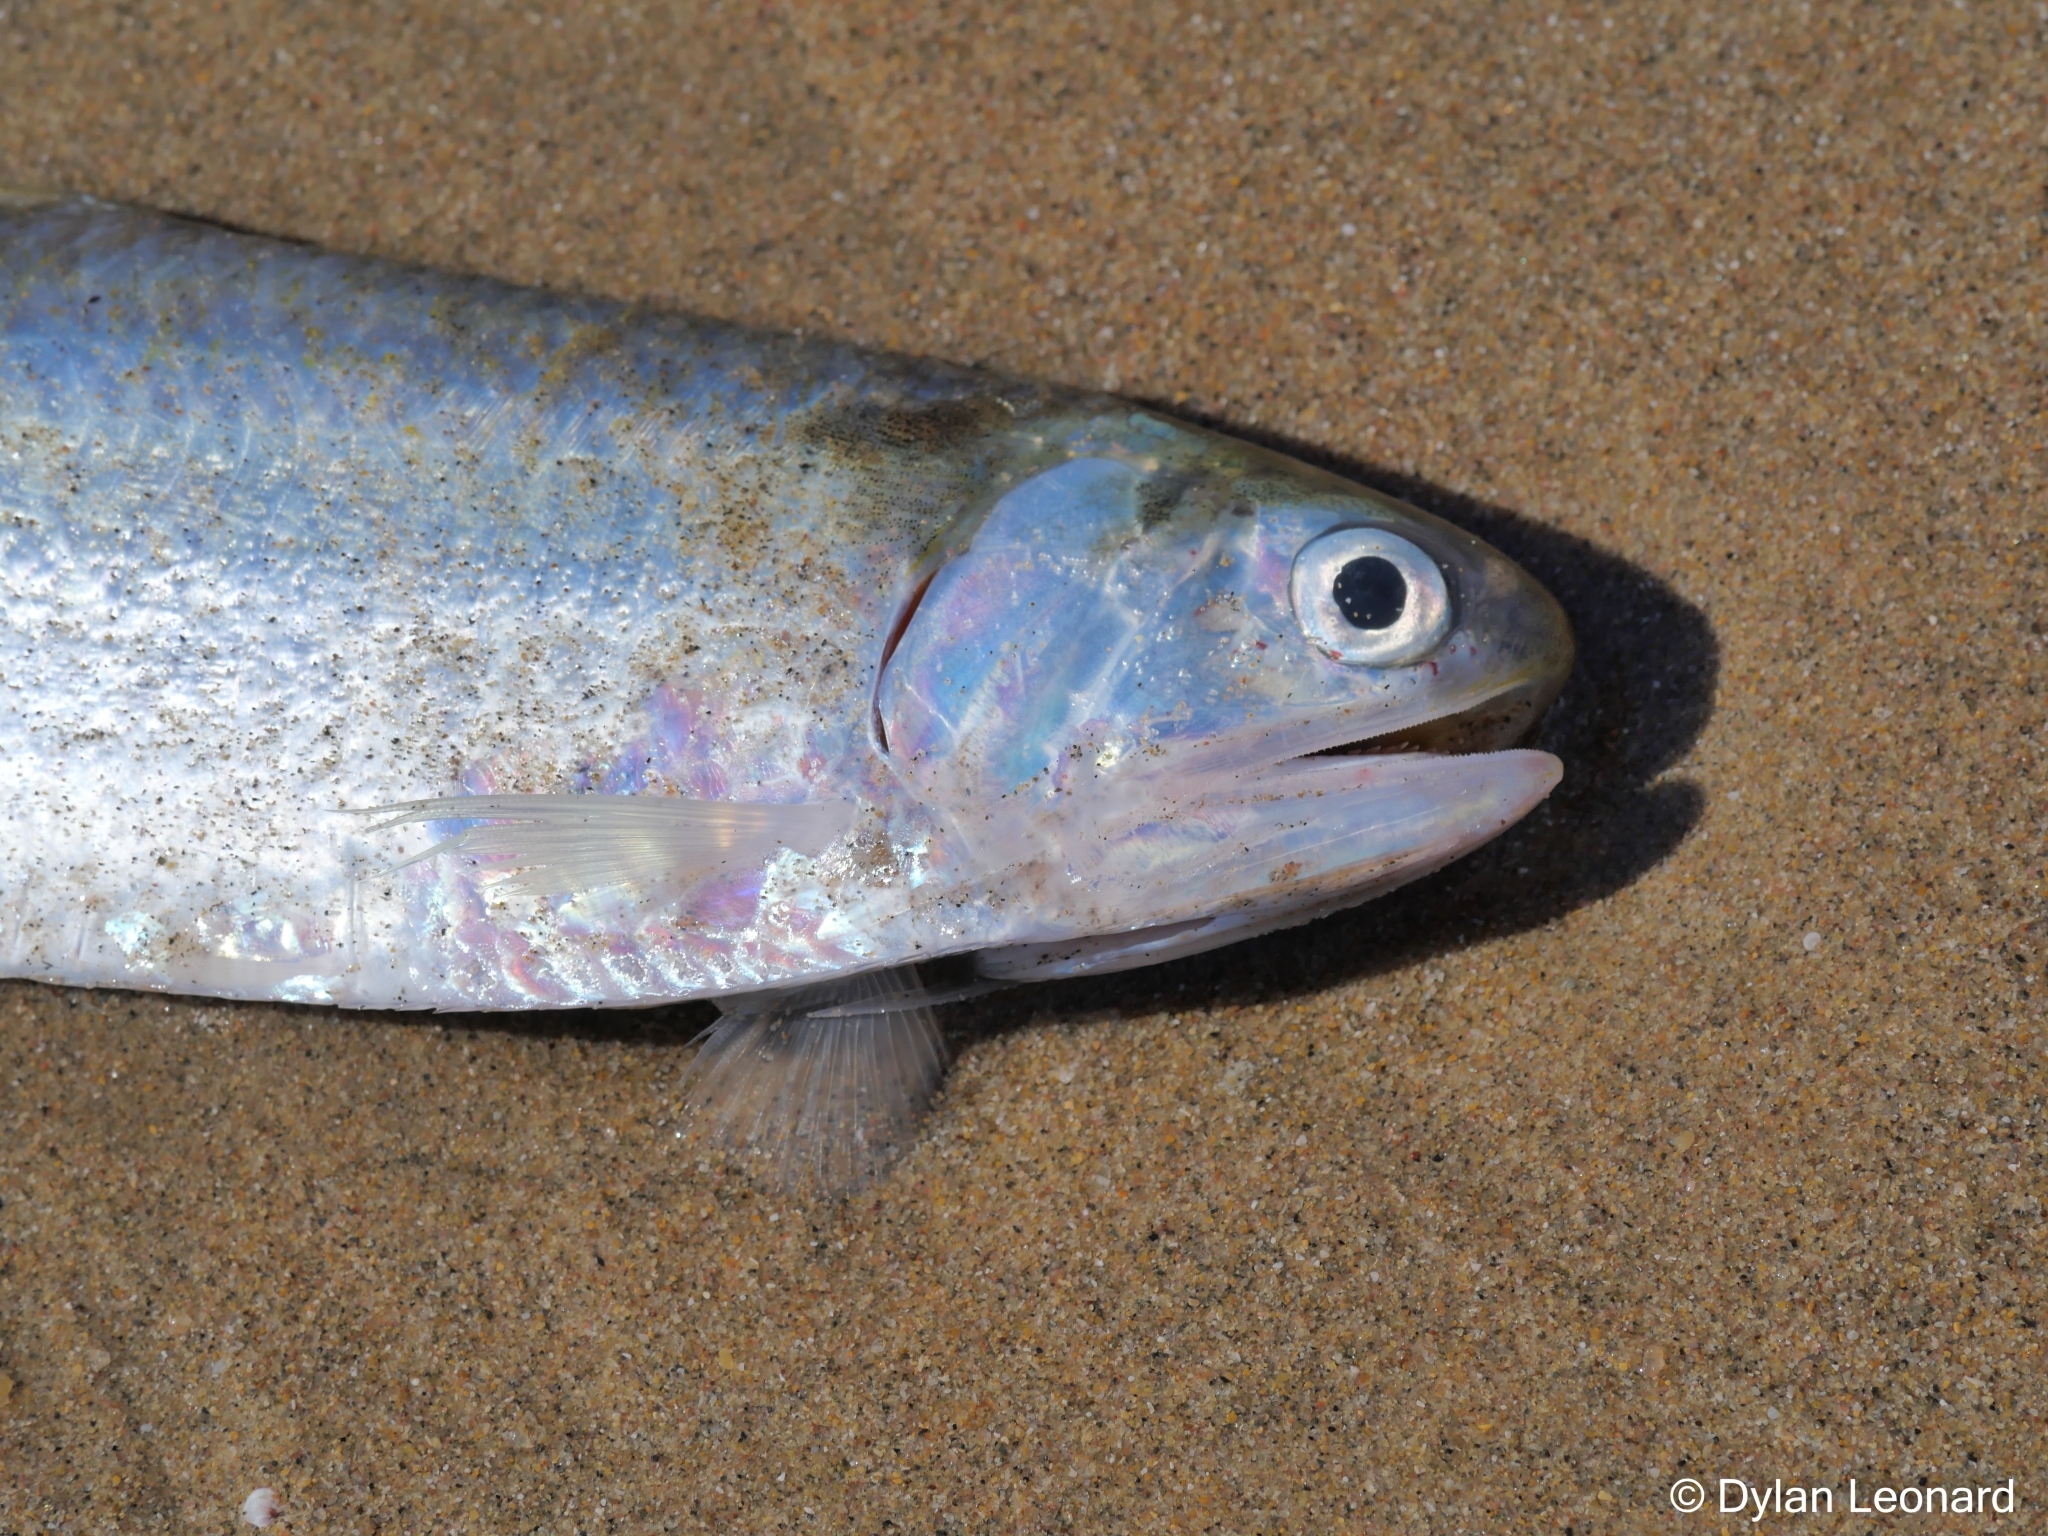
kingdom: Animalia
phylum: Chordata
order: Clupeiformes
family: Engraulidae
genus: Thryssa
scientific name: Thryssa vitrirostris
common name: Orangemouth anchovy
